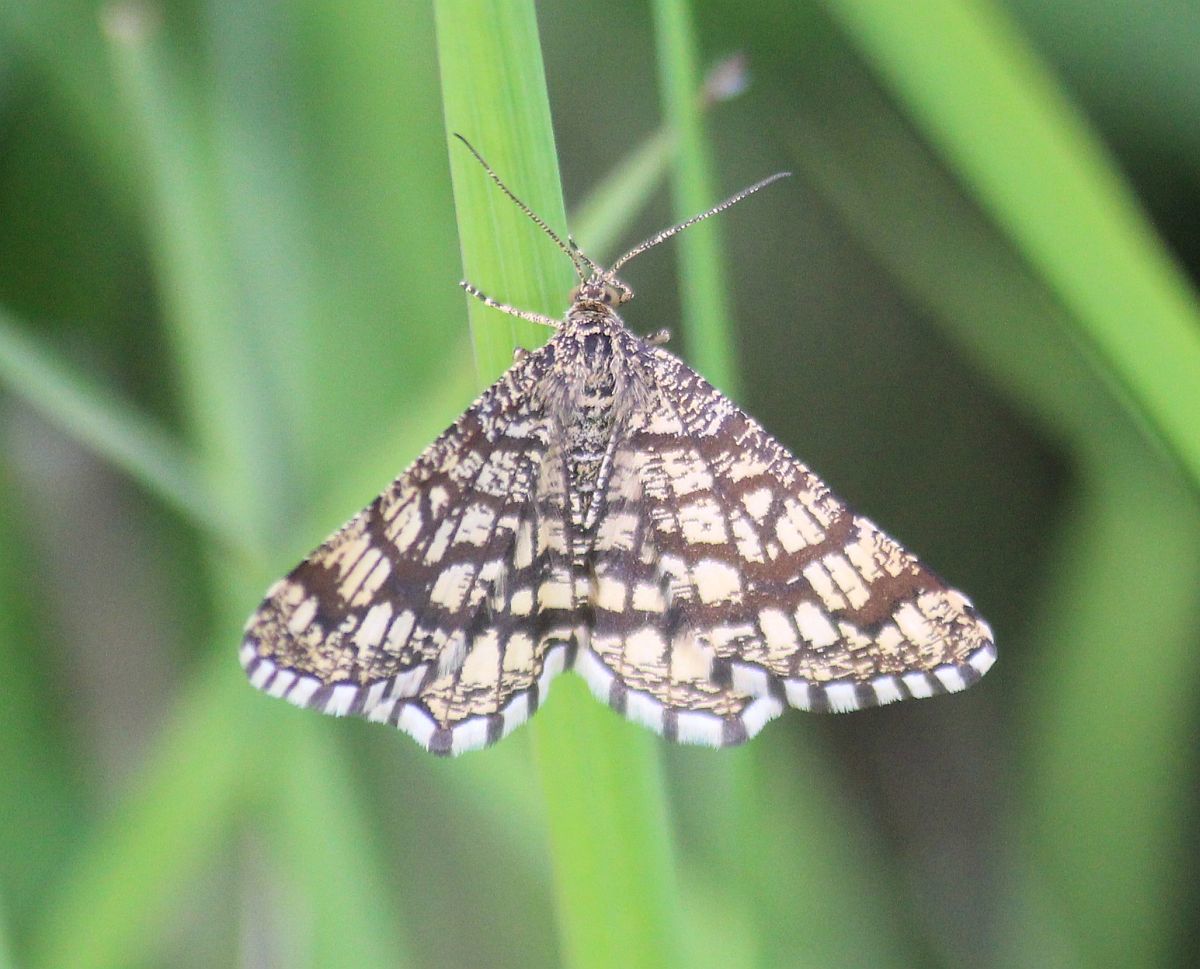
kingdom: Animalia
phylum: Arthropoda
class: Insecta
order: Lepidoptera
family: Geometridae
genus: Chiasmia
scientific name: Chiasmia clathrata
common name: Latticed heath
